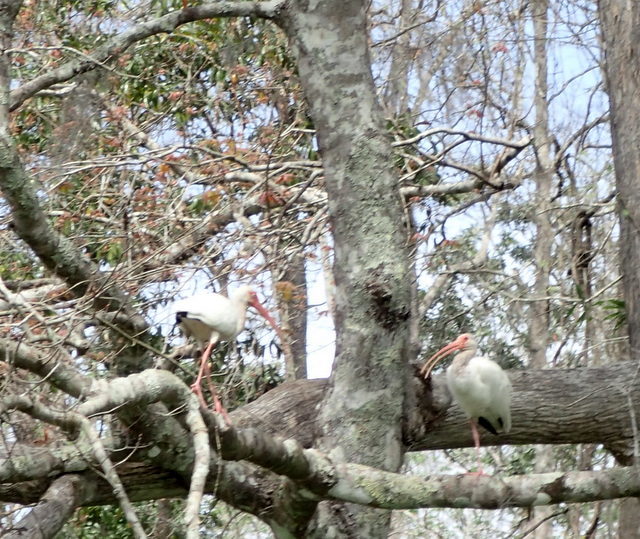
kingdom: Animalia
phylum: Chordata
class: Aves
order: Pelecaniformes
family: Threskiornithidae
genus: Eudocimus
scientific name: Eudocimus albus
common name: White ibis
